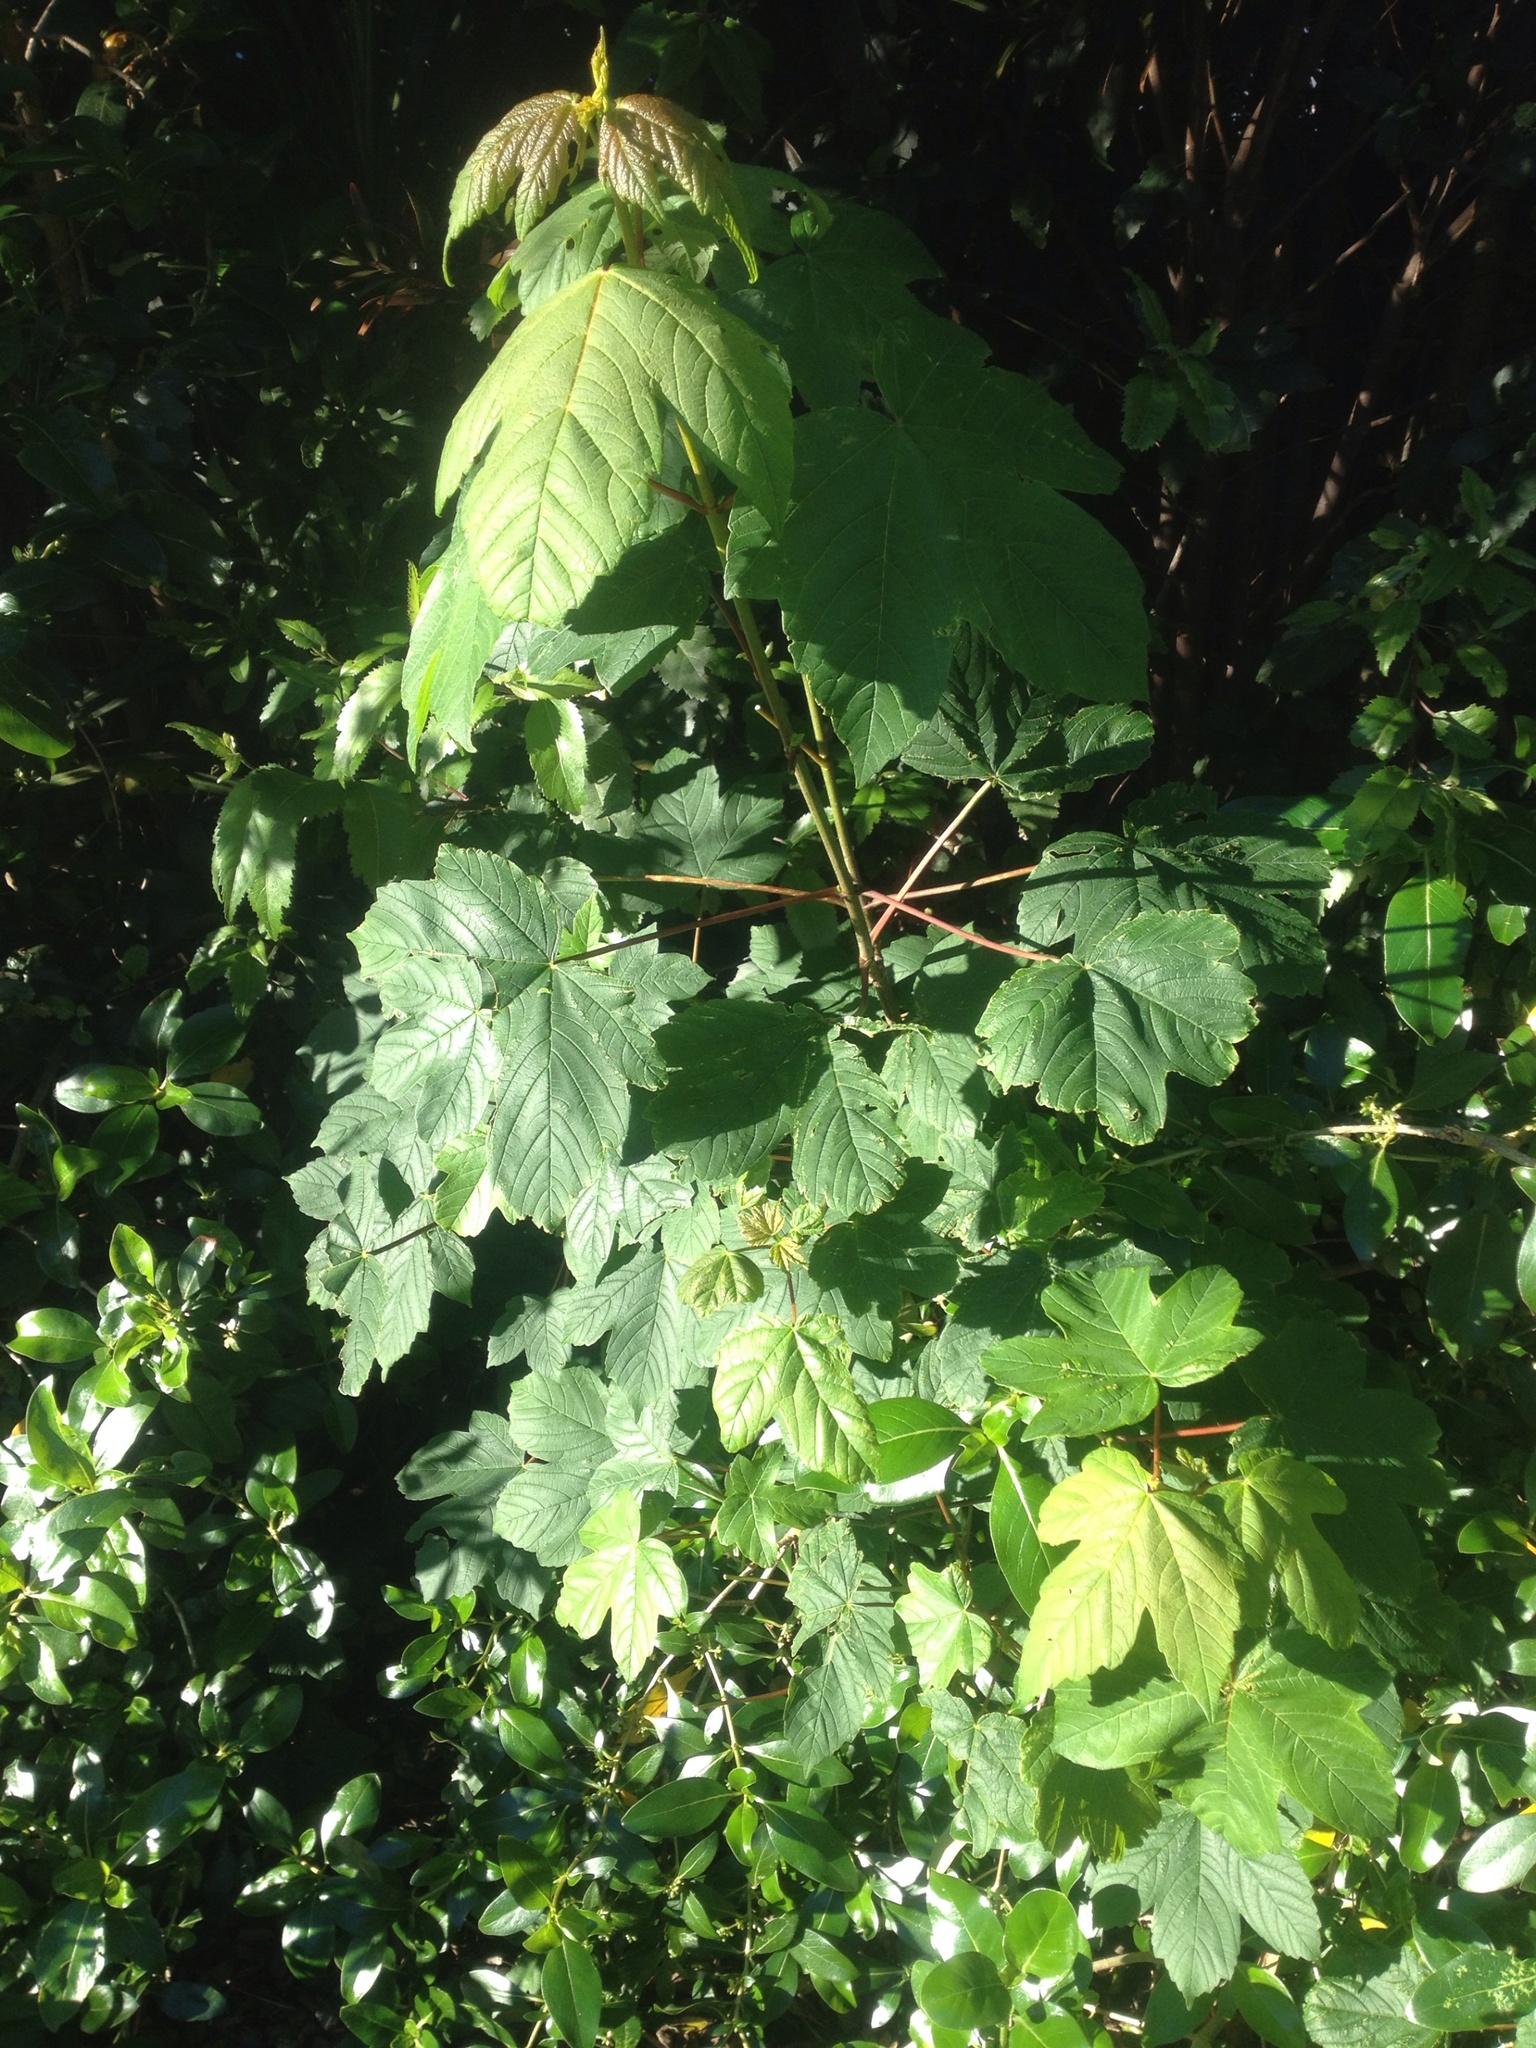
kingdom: Plantae
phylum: Tracheophyta
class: Magnoliopsida
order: Sapindales
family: Sapindaceae
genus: Acer
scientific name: Acer pseudoplatanus
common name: Sycamore
